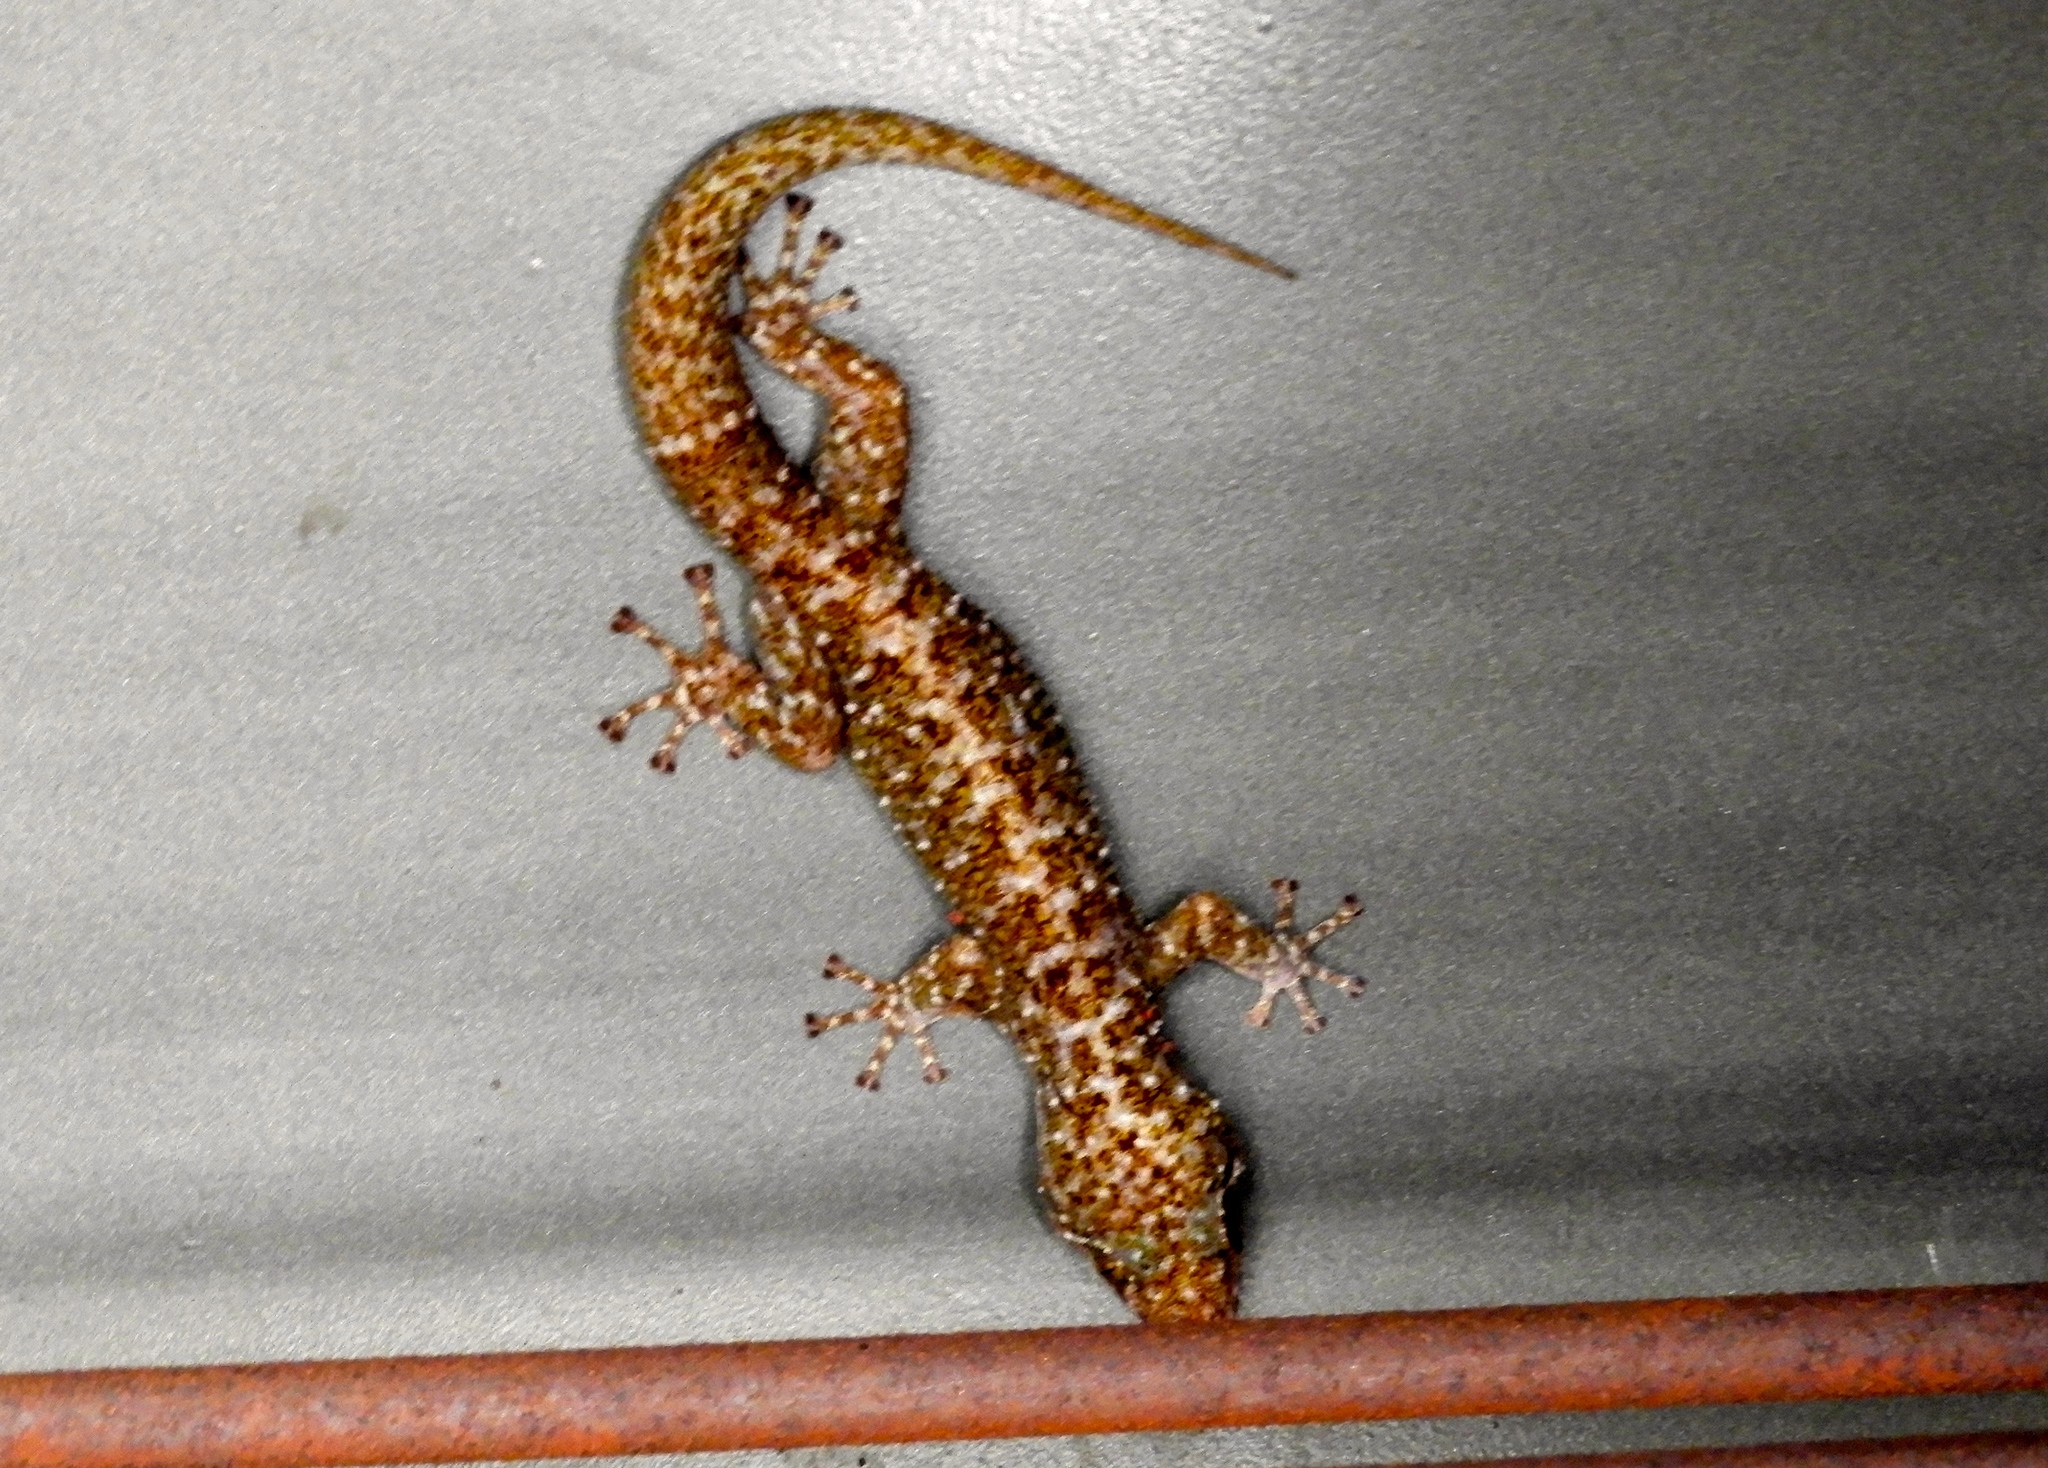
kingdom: Animalia
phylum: Chordata
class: Squamata
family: Phyllodactylidae
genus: Phyllodactylus
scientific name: Phyllodactylus tuberculosus
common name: Yellowbelly  gecko
